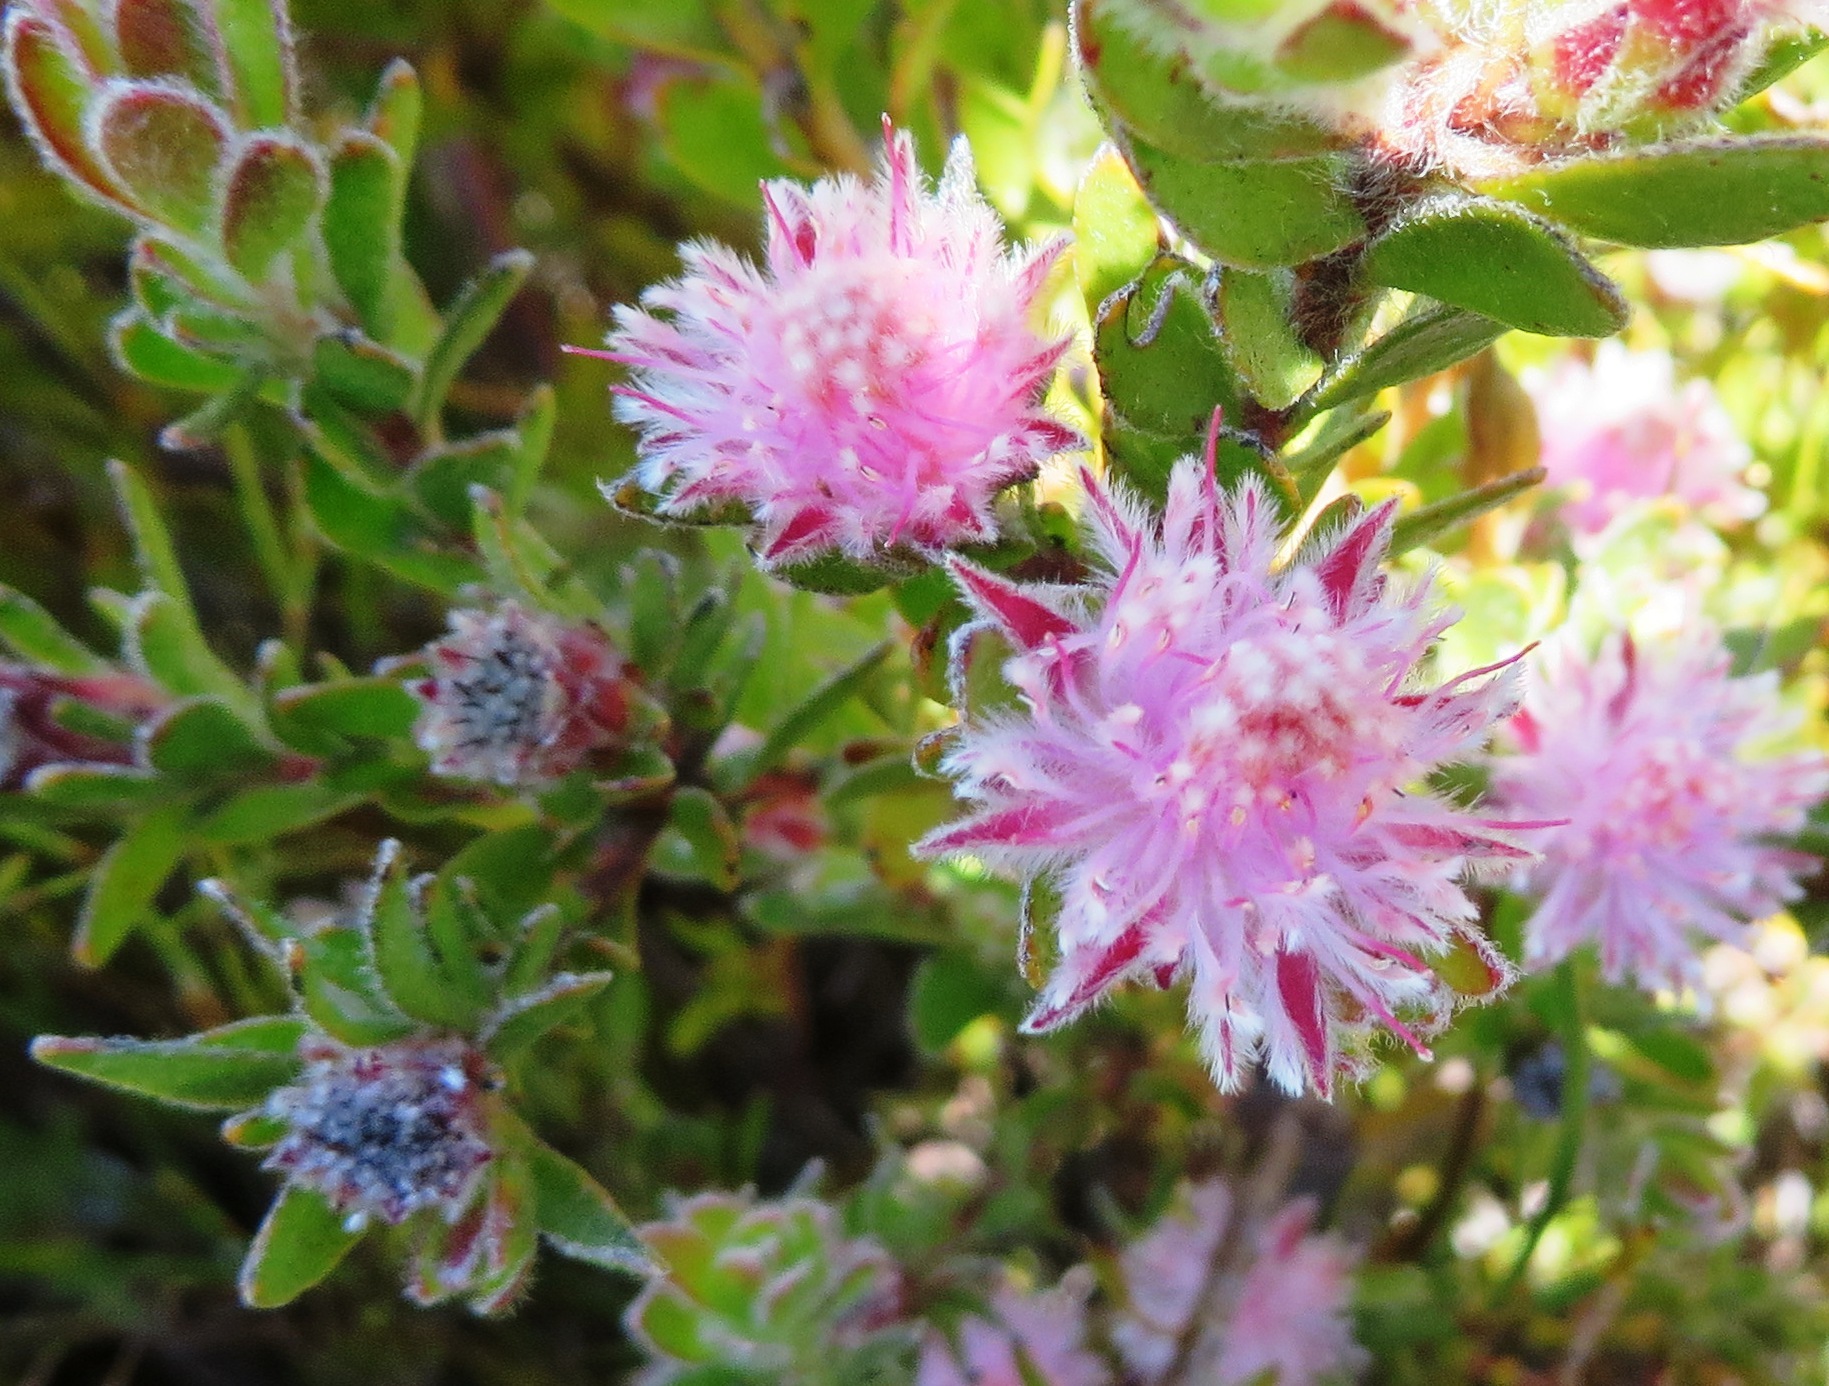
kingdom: Plantae
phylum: Tracheophyta
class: Magnoliopsida
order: Proteales
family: Proteaceae
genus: Diastella
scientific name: Diastella divaricata
